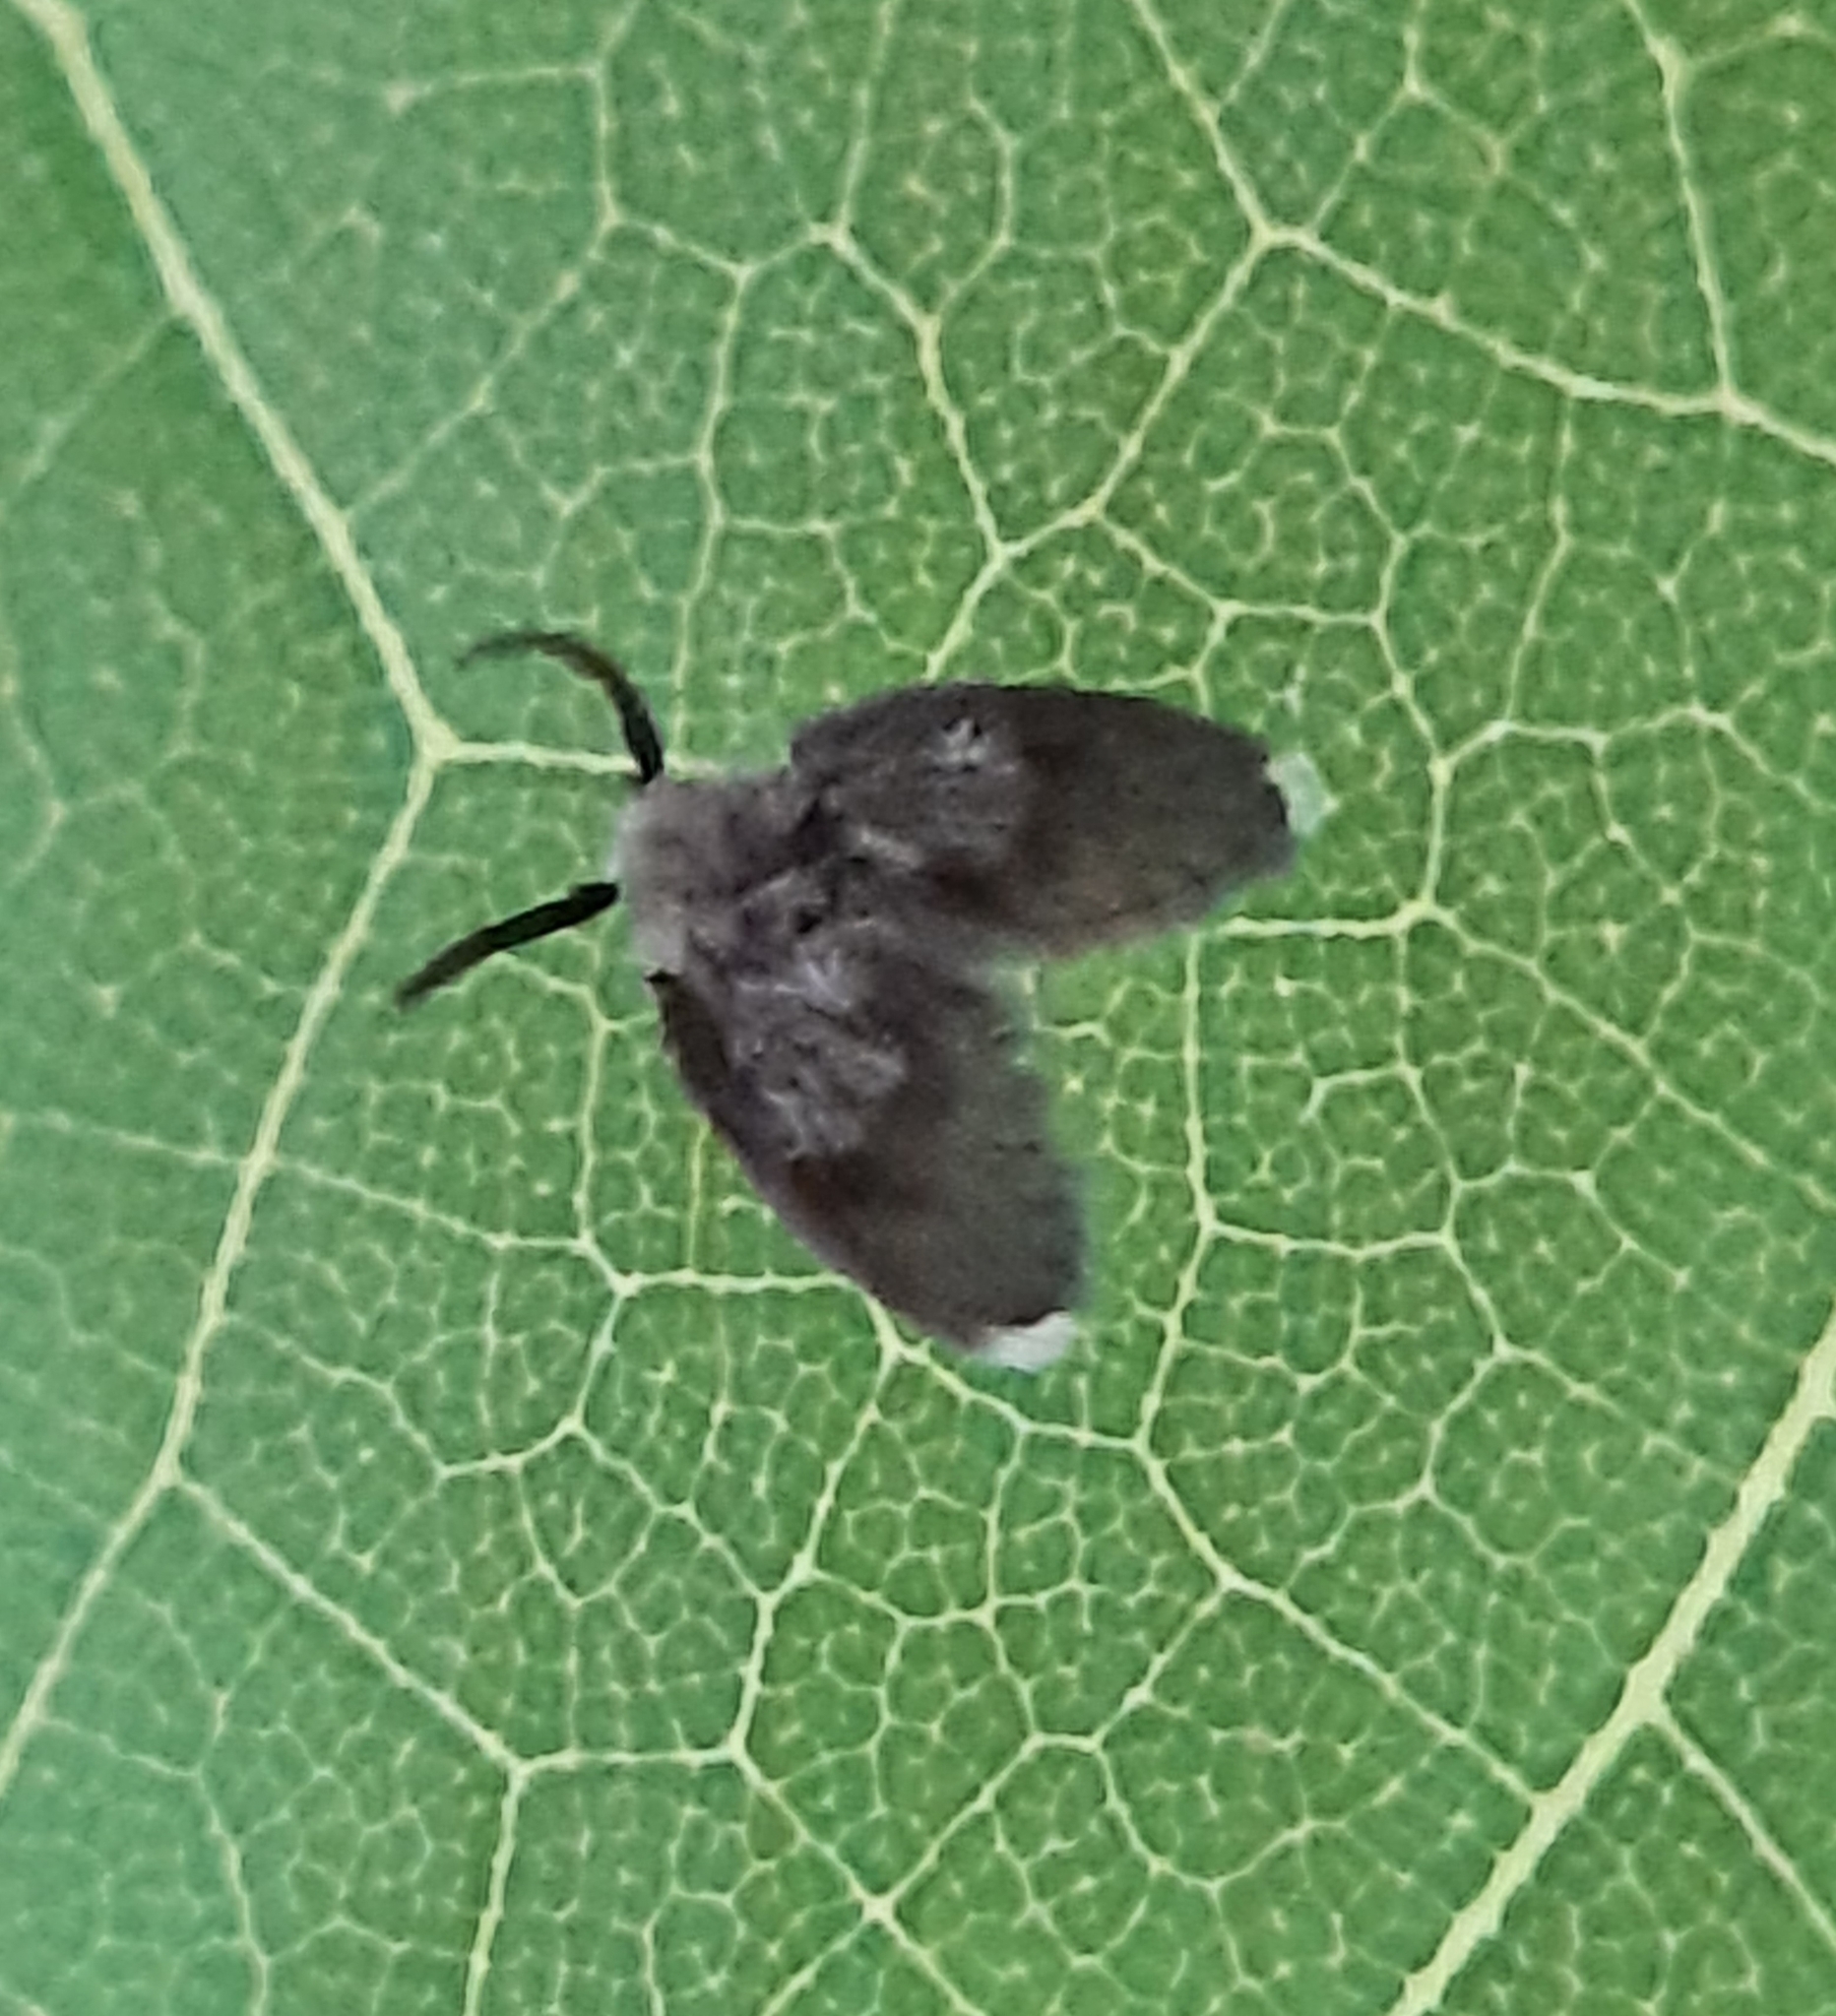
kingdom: Animalia
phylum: Arthropoda
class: Insecta
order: Diptera
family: Psychodidae
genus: Lepiseodina
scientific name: Lepiseodina
